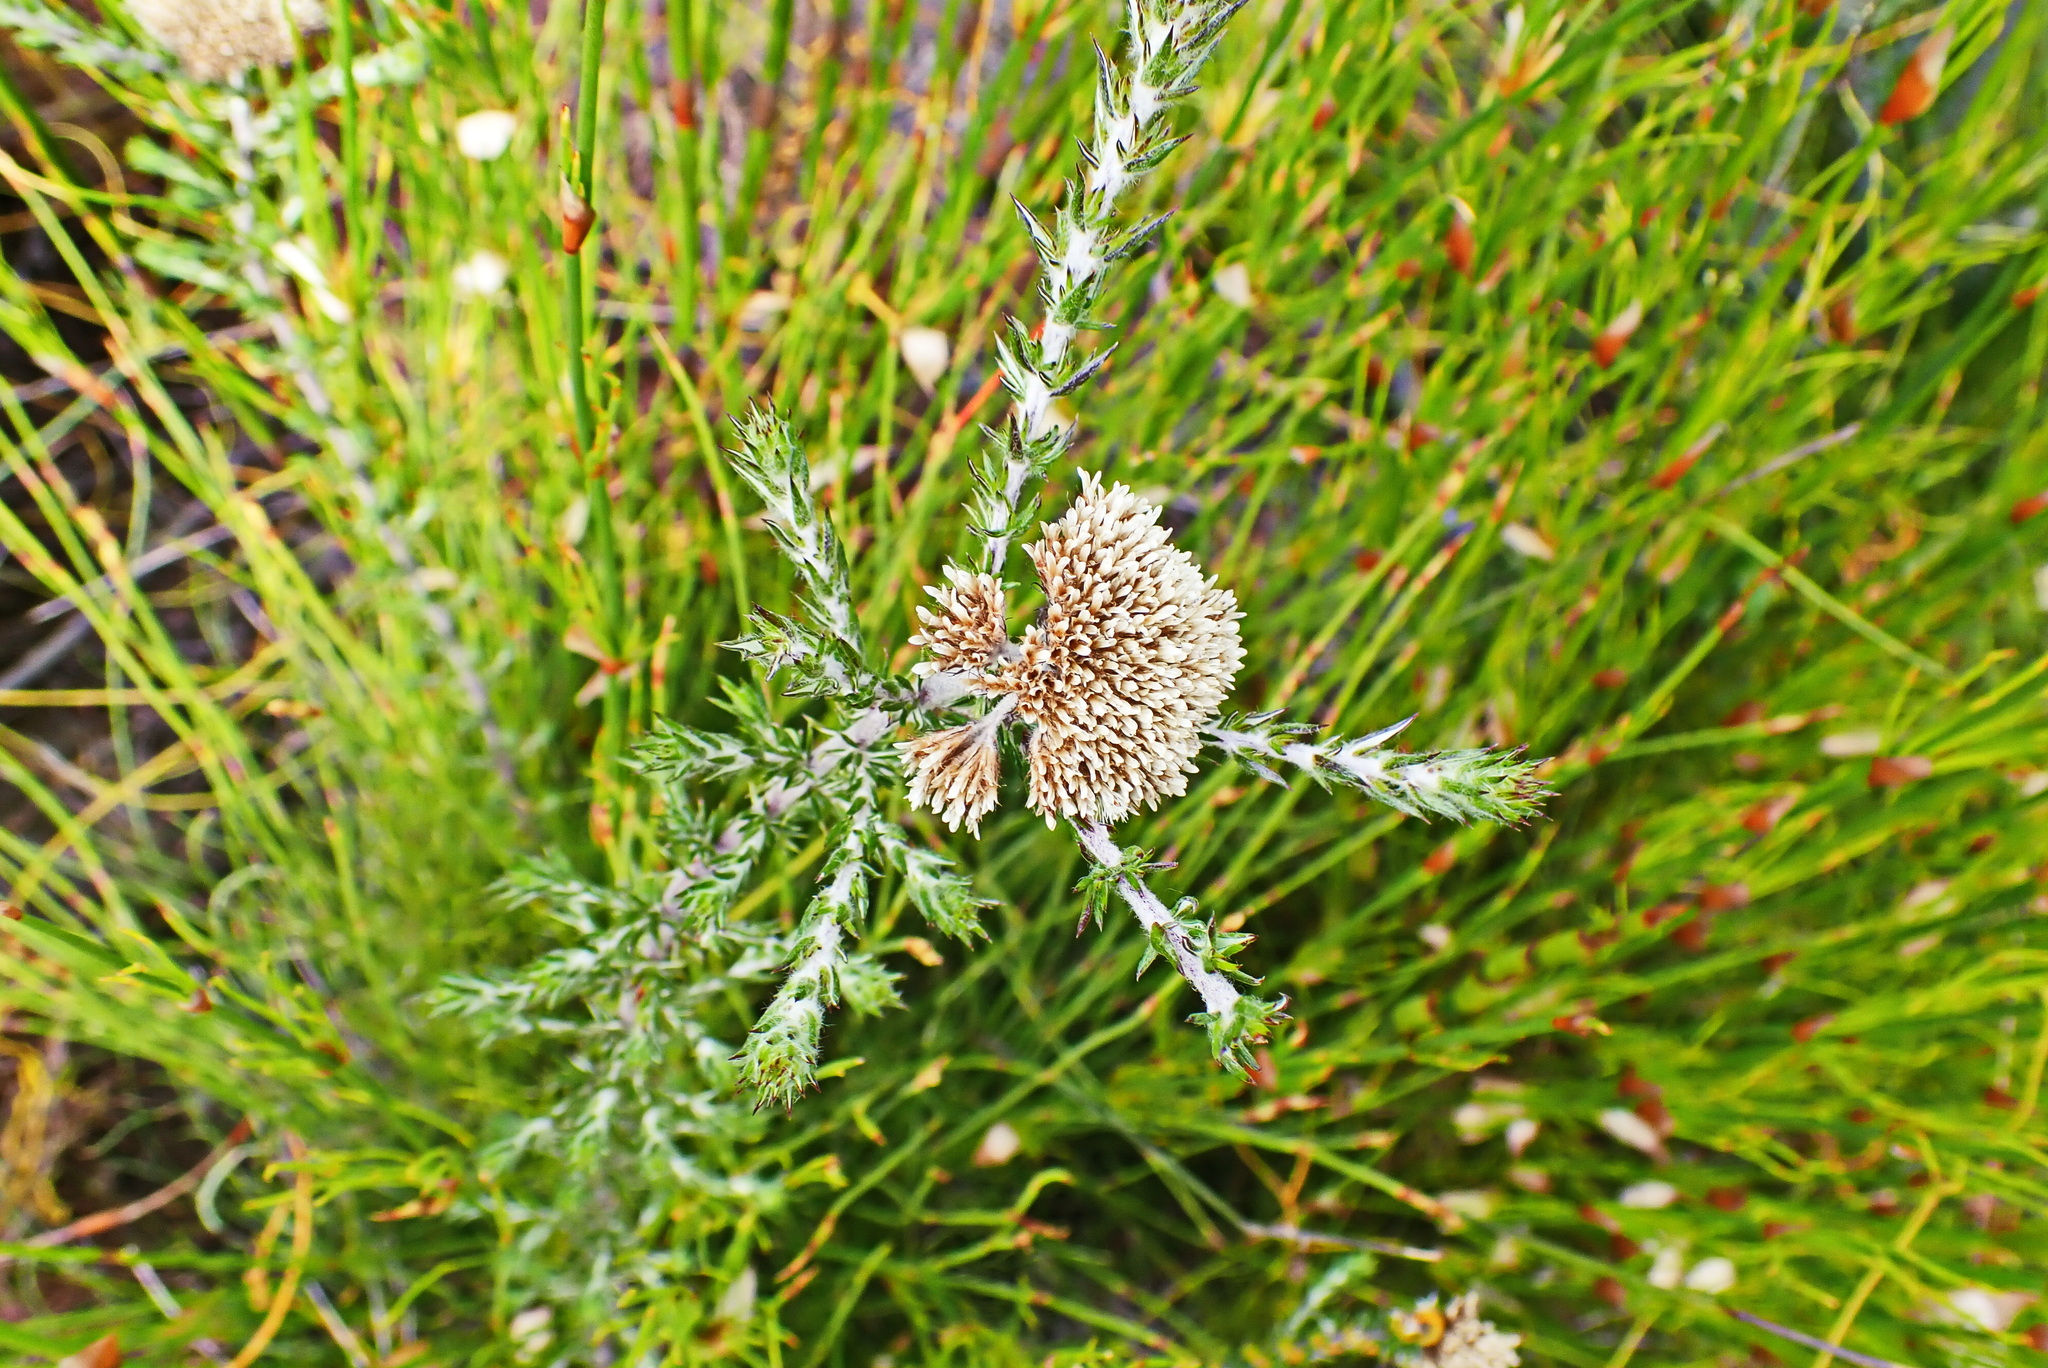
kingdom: Plantae
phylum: Tracheophyta
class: Magnoliopsida
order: Asterales
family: Asteraceae
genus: Metalasia
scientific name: Metalasia pungens
